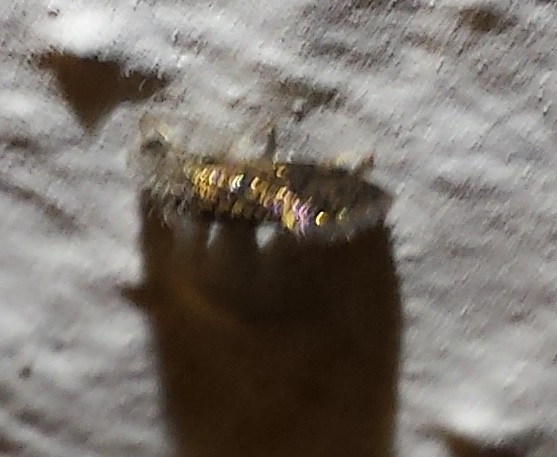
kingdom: Animalia
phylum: Arthropoda
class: Insecta
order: Lepidoptera
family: Eriocraniidae
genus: Dyseriocrania
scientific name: Dyseriocrania griseocapitella
